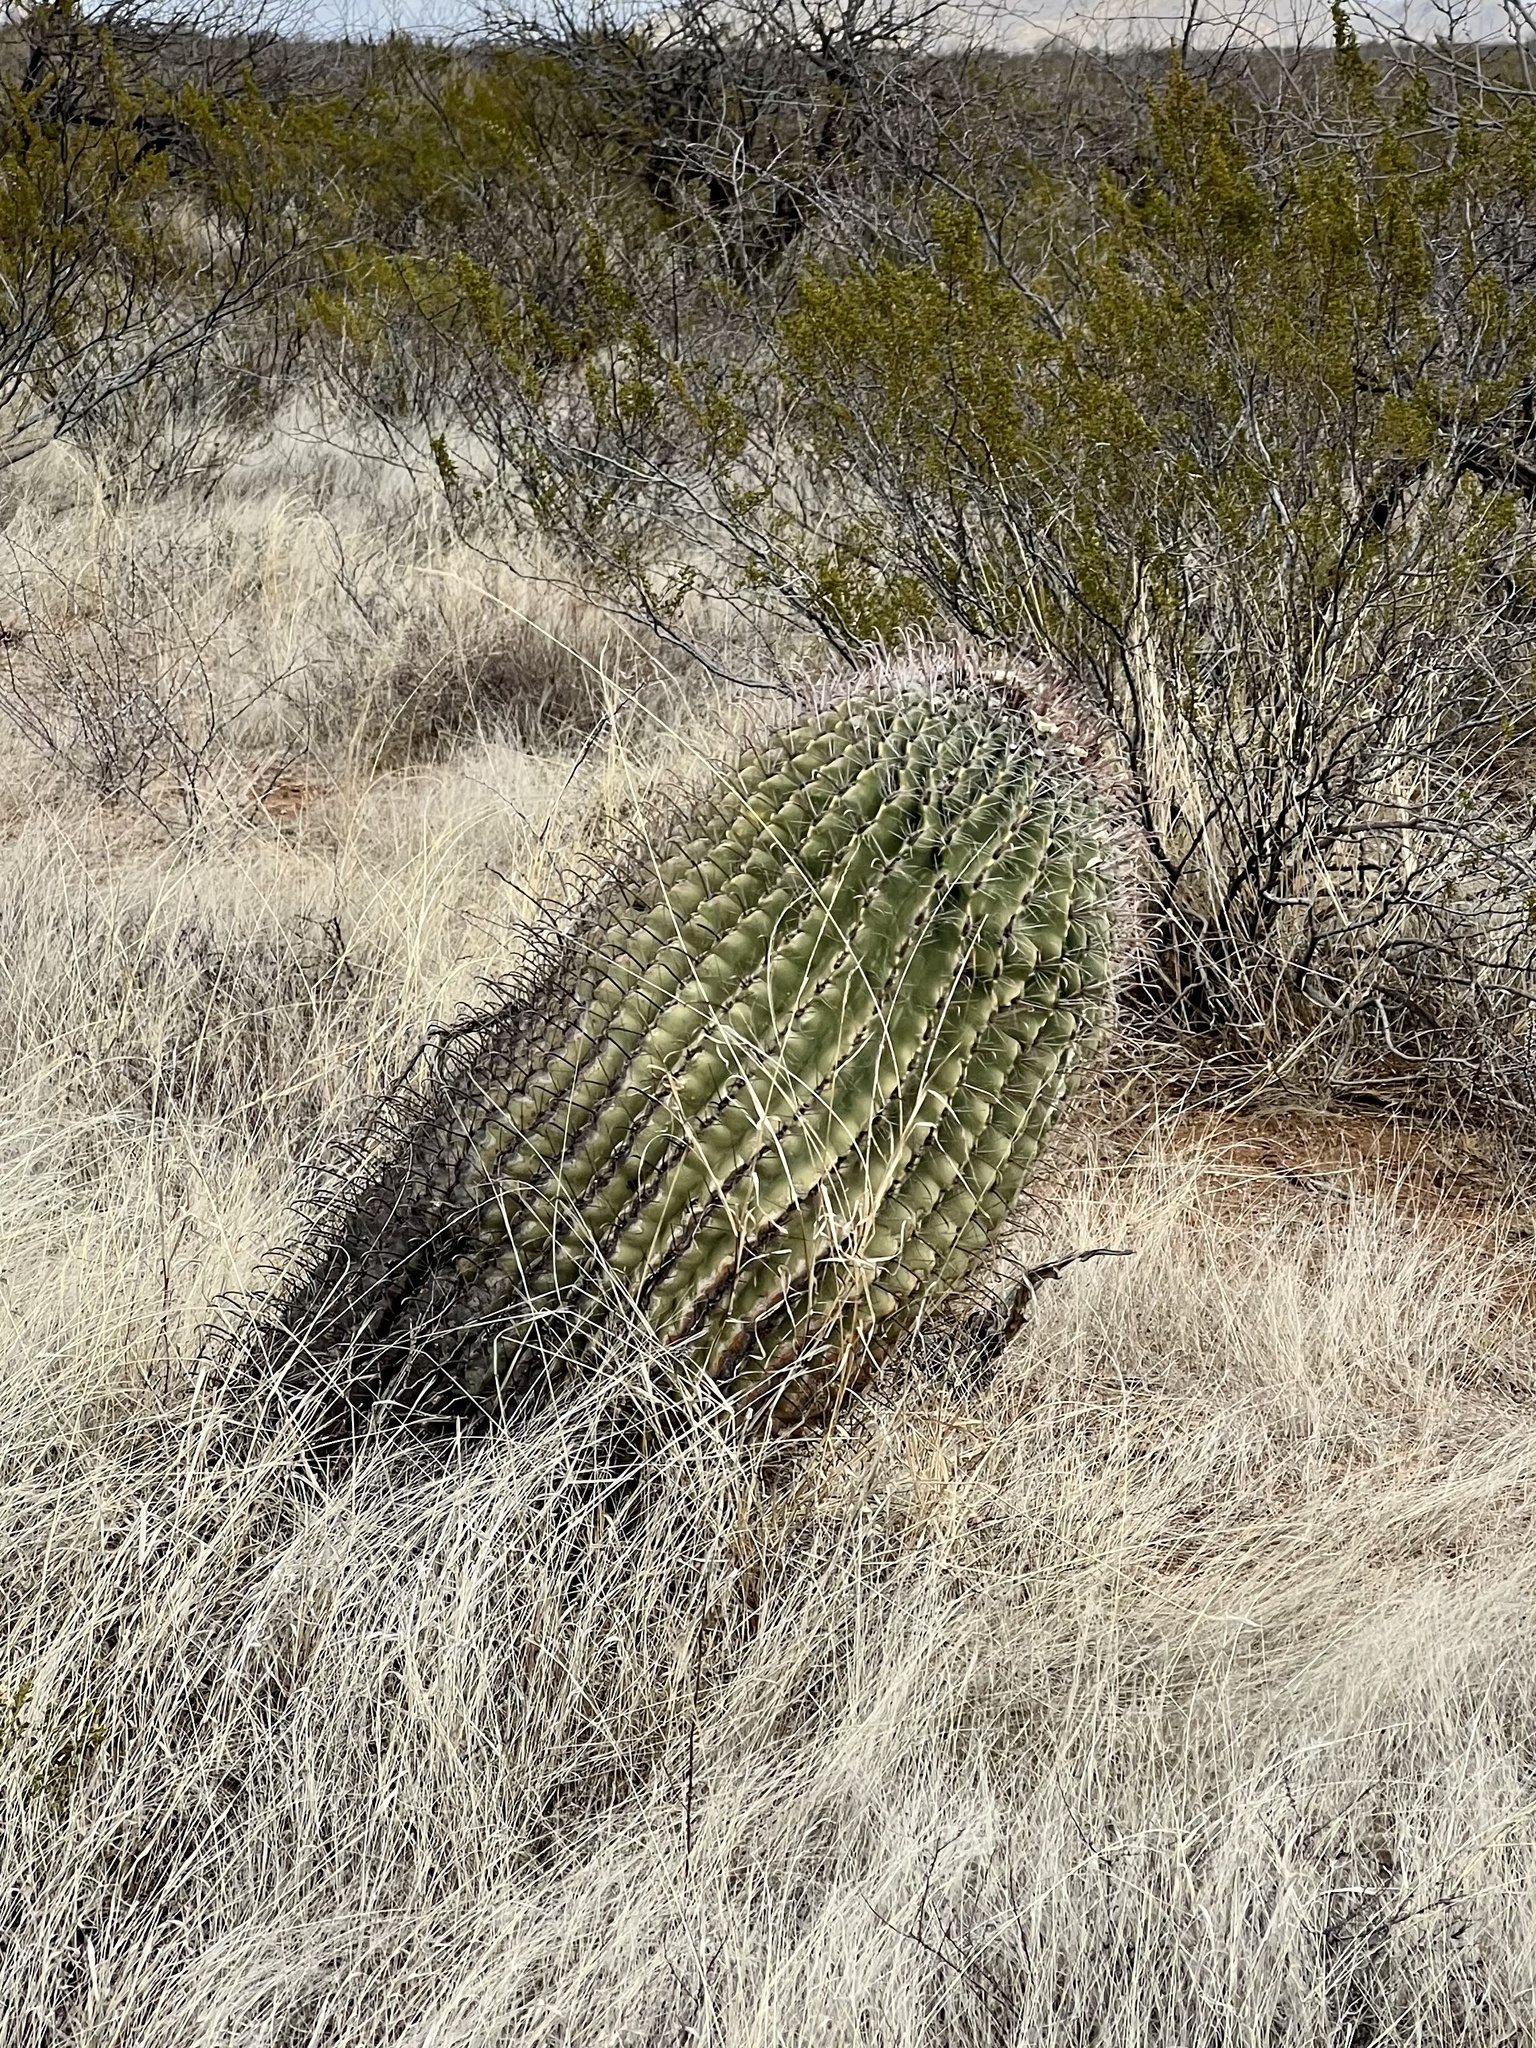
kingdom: Plantae
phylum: Tracheophyta
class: Magnoliopsida
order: Caryophyllales
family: Cactaceae
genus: Ferocactus
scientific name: Ferocactus wislizeni
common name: Candy barrel cactus
